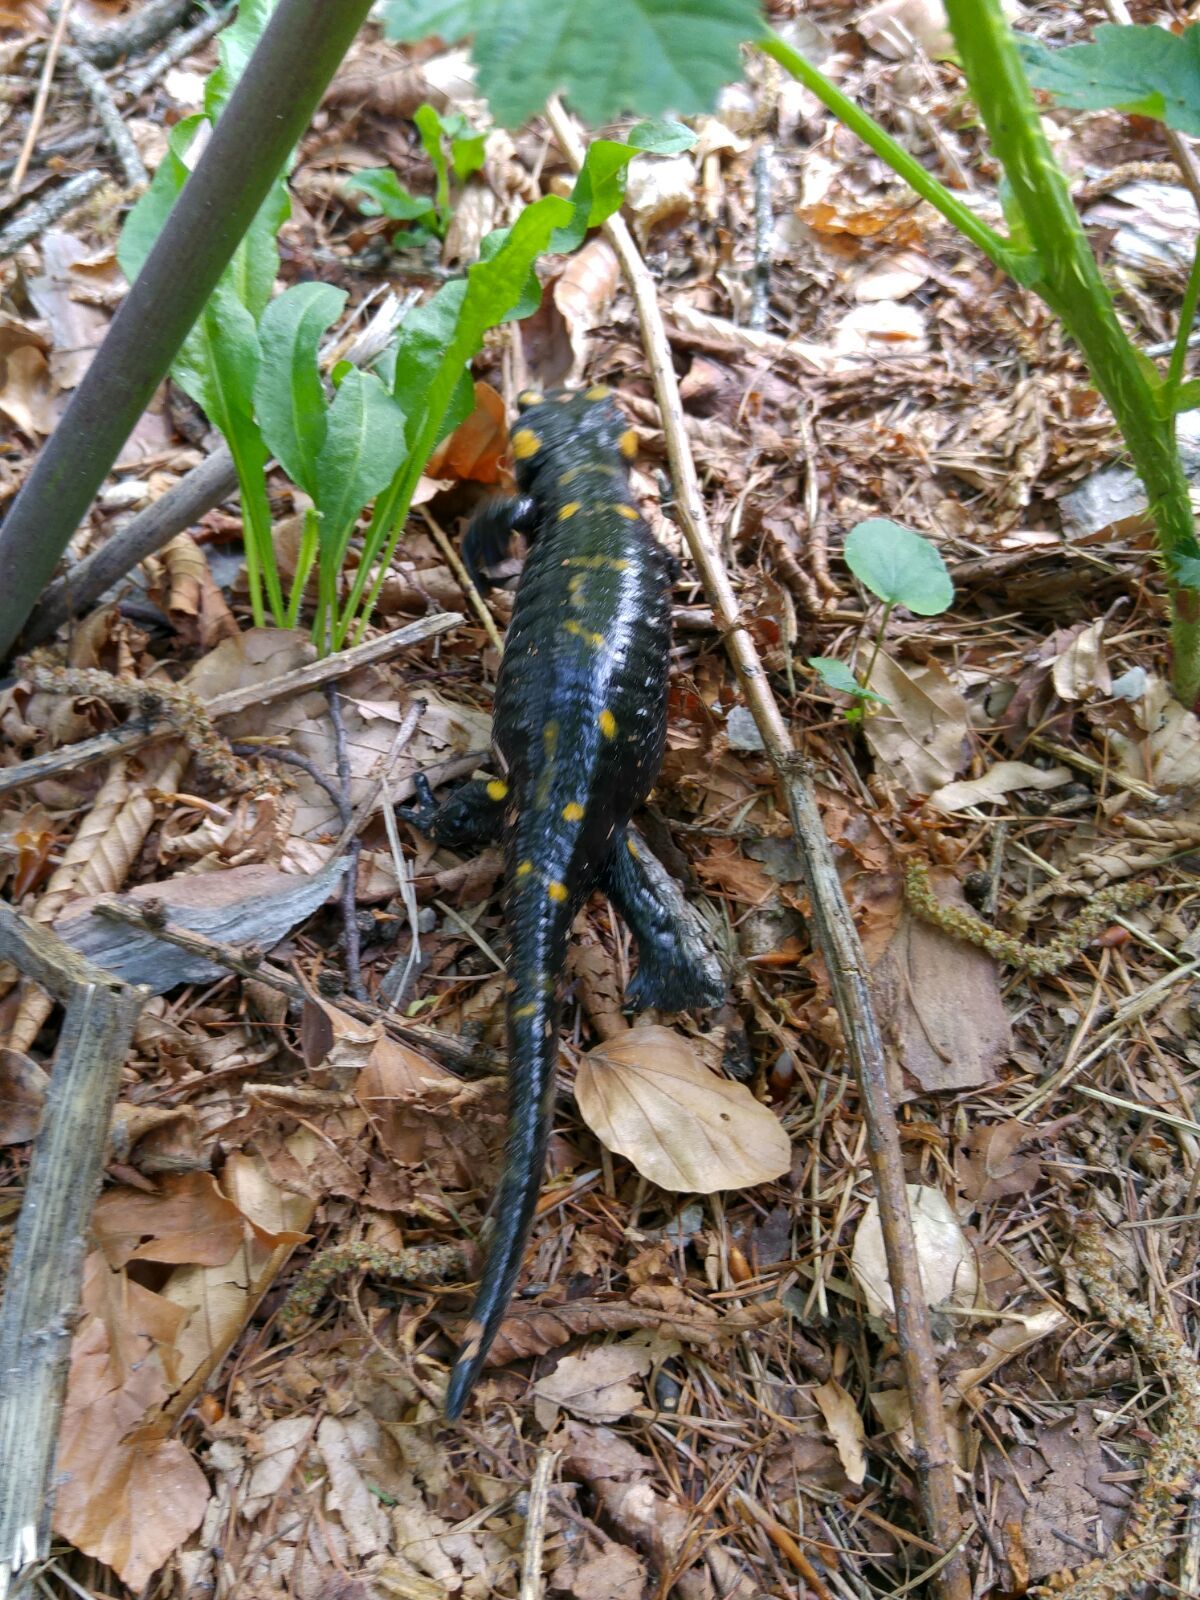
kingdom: Animalia
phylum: Chordata
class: Amphibia
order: Caudata
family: Salamandridae
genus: Salamandra
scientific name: Salamandra salamandra
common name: Fire salamander
